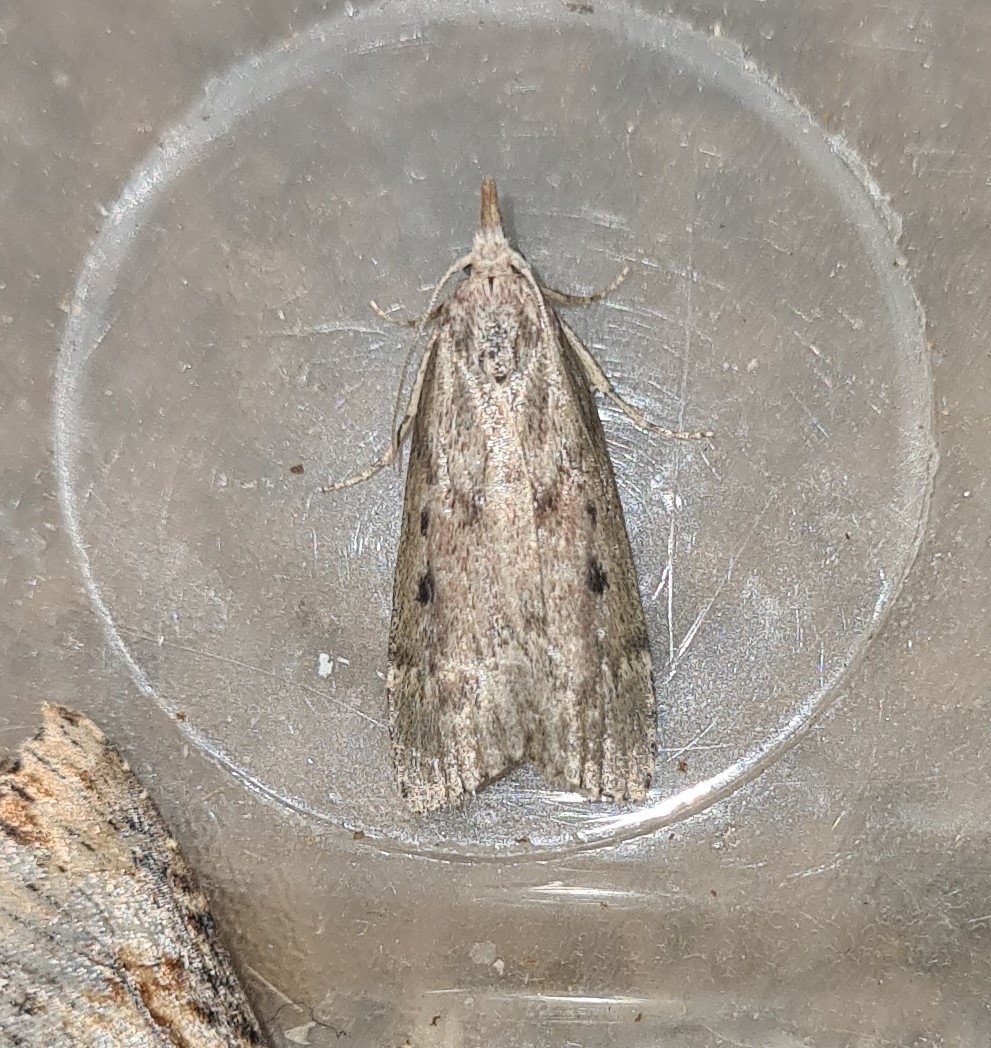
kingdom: Animalia
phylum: Arthropoda
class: Insecta
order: Lepidoptera
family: Pyralidae
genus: Aphomia
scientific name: Aphomia sociella
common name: Bee moth
